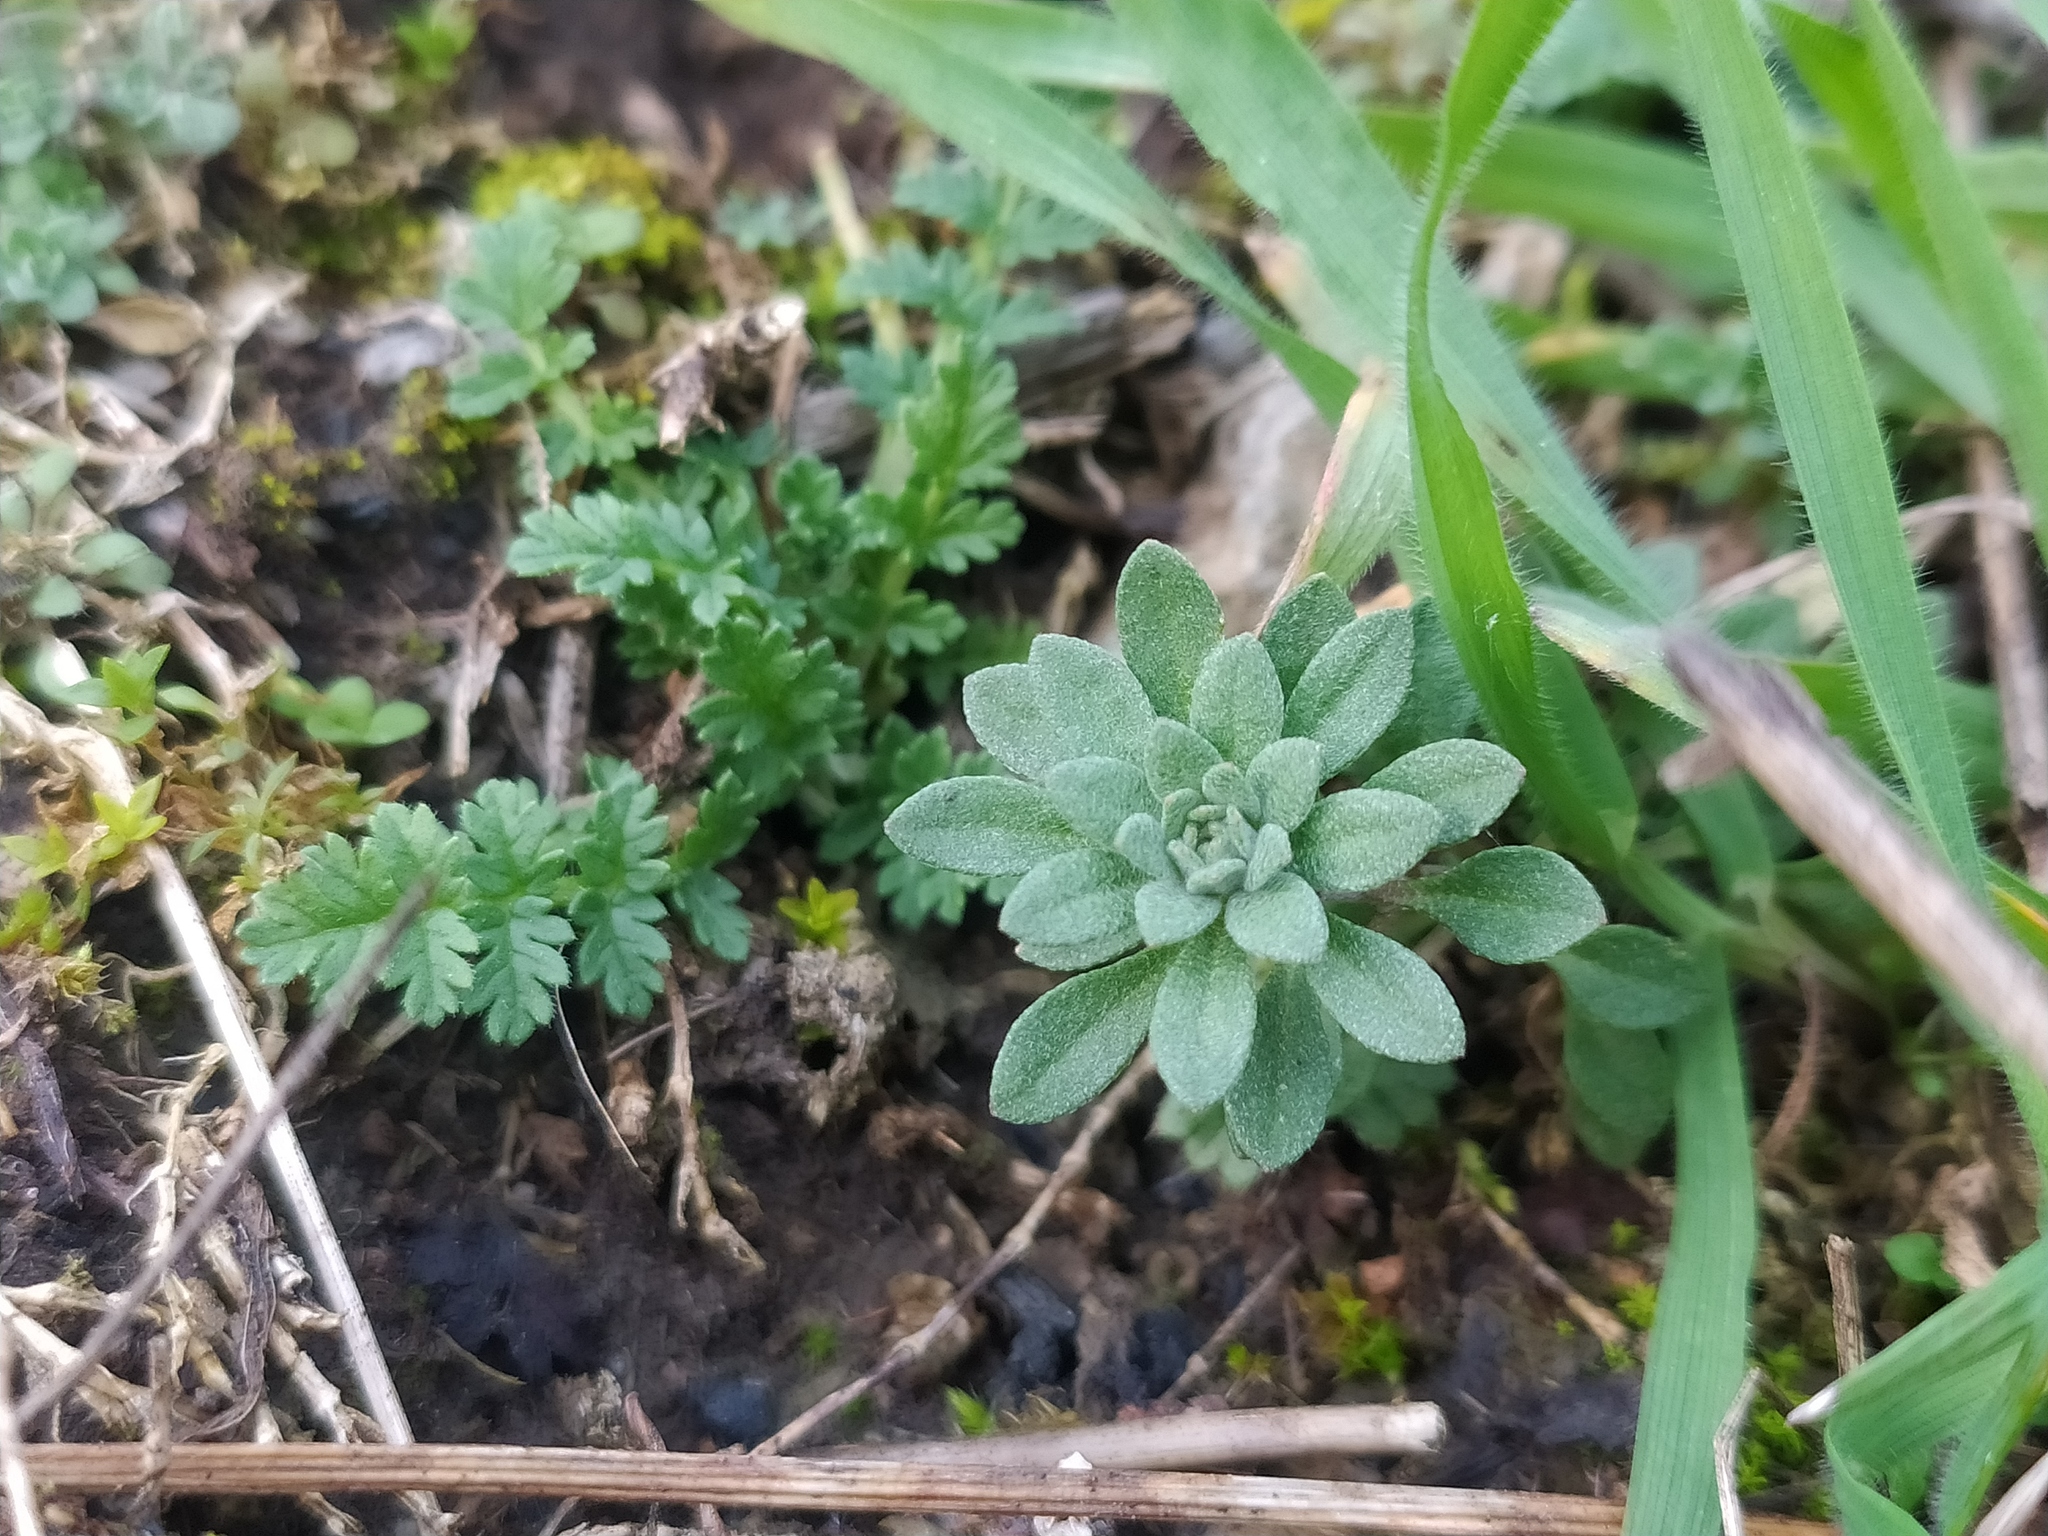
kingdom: Plantae
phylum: Tracheophyta
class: Magnoliopsida
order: Brassicales
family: Brassicaceae
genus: Alyssum
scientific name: Alyssum alyssoides
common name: Small alison
